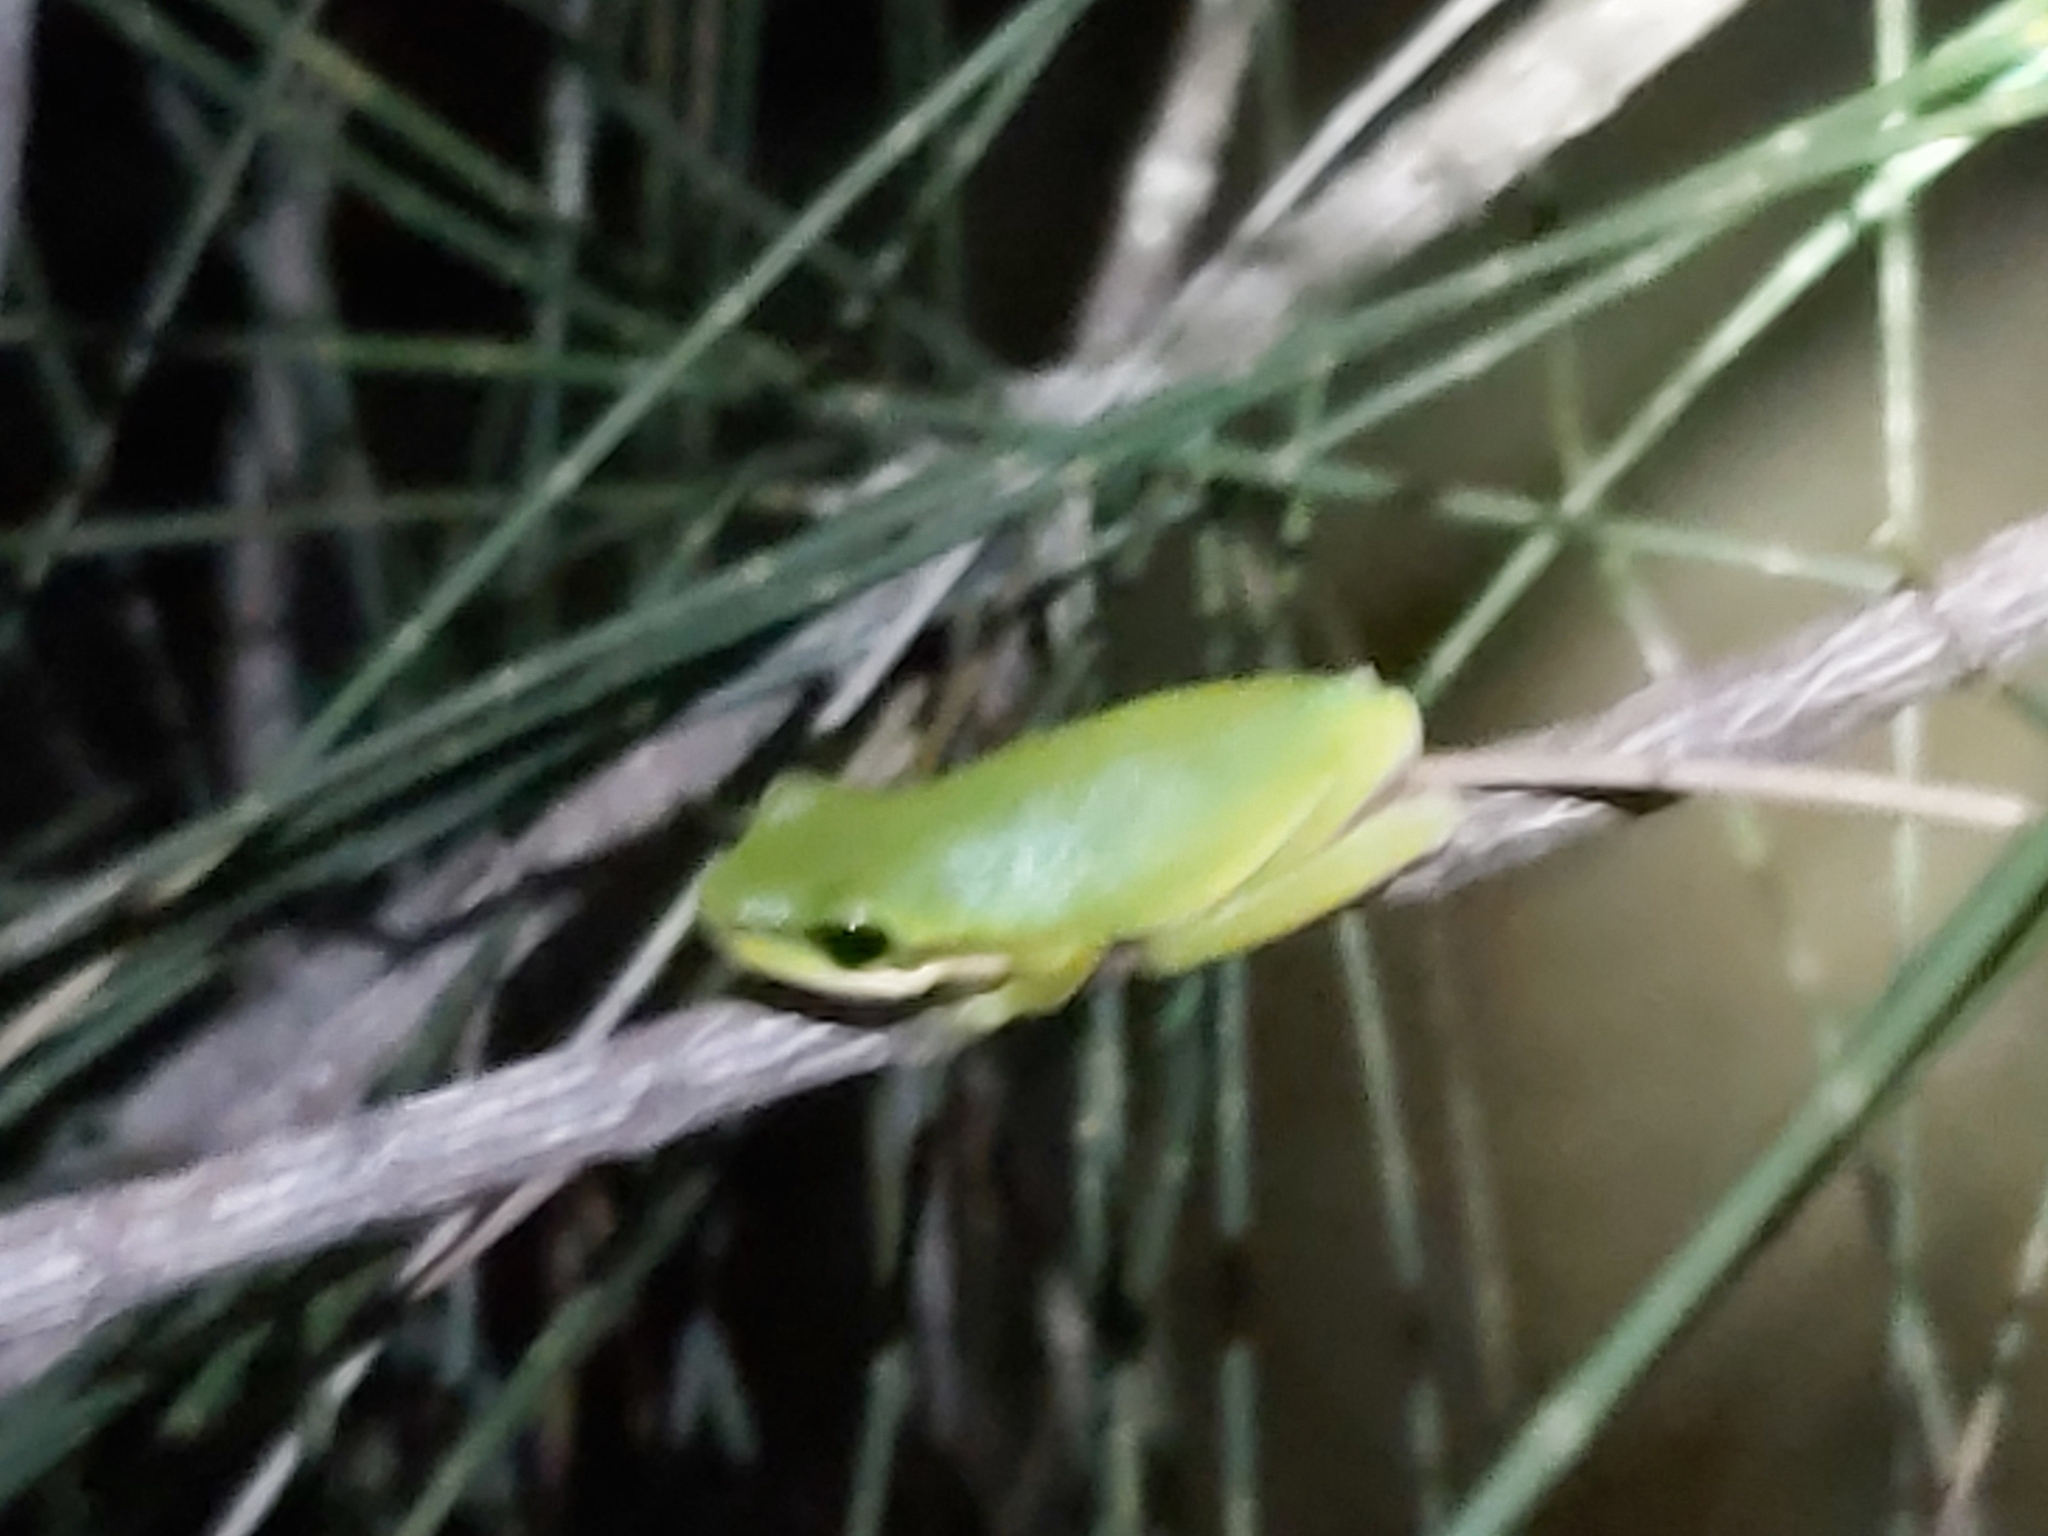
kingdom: Animalia
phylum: Chordata
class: Amphibia
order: Anura
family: Pelodryadidae
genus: Litoria
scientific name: Litoria fallax
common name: Eastern dwarf treefrog
